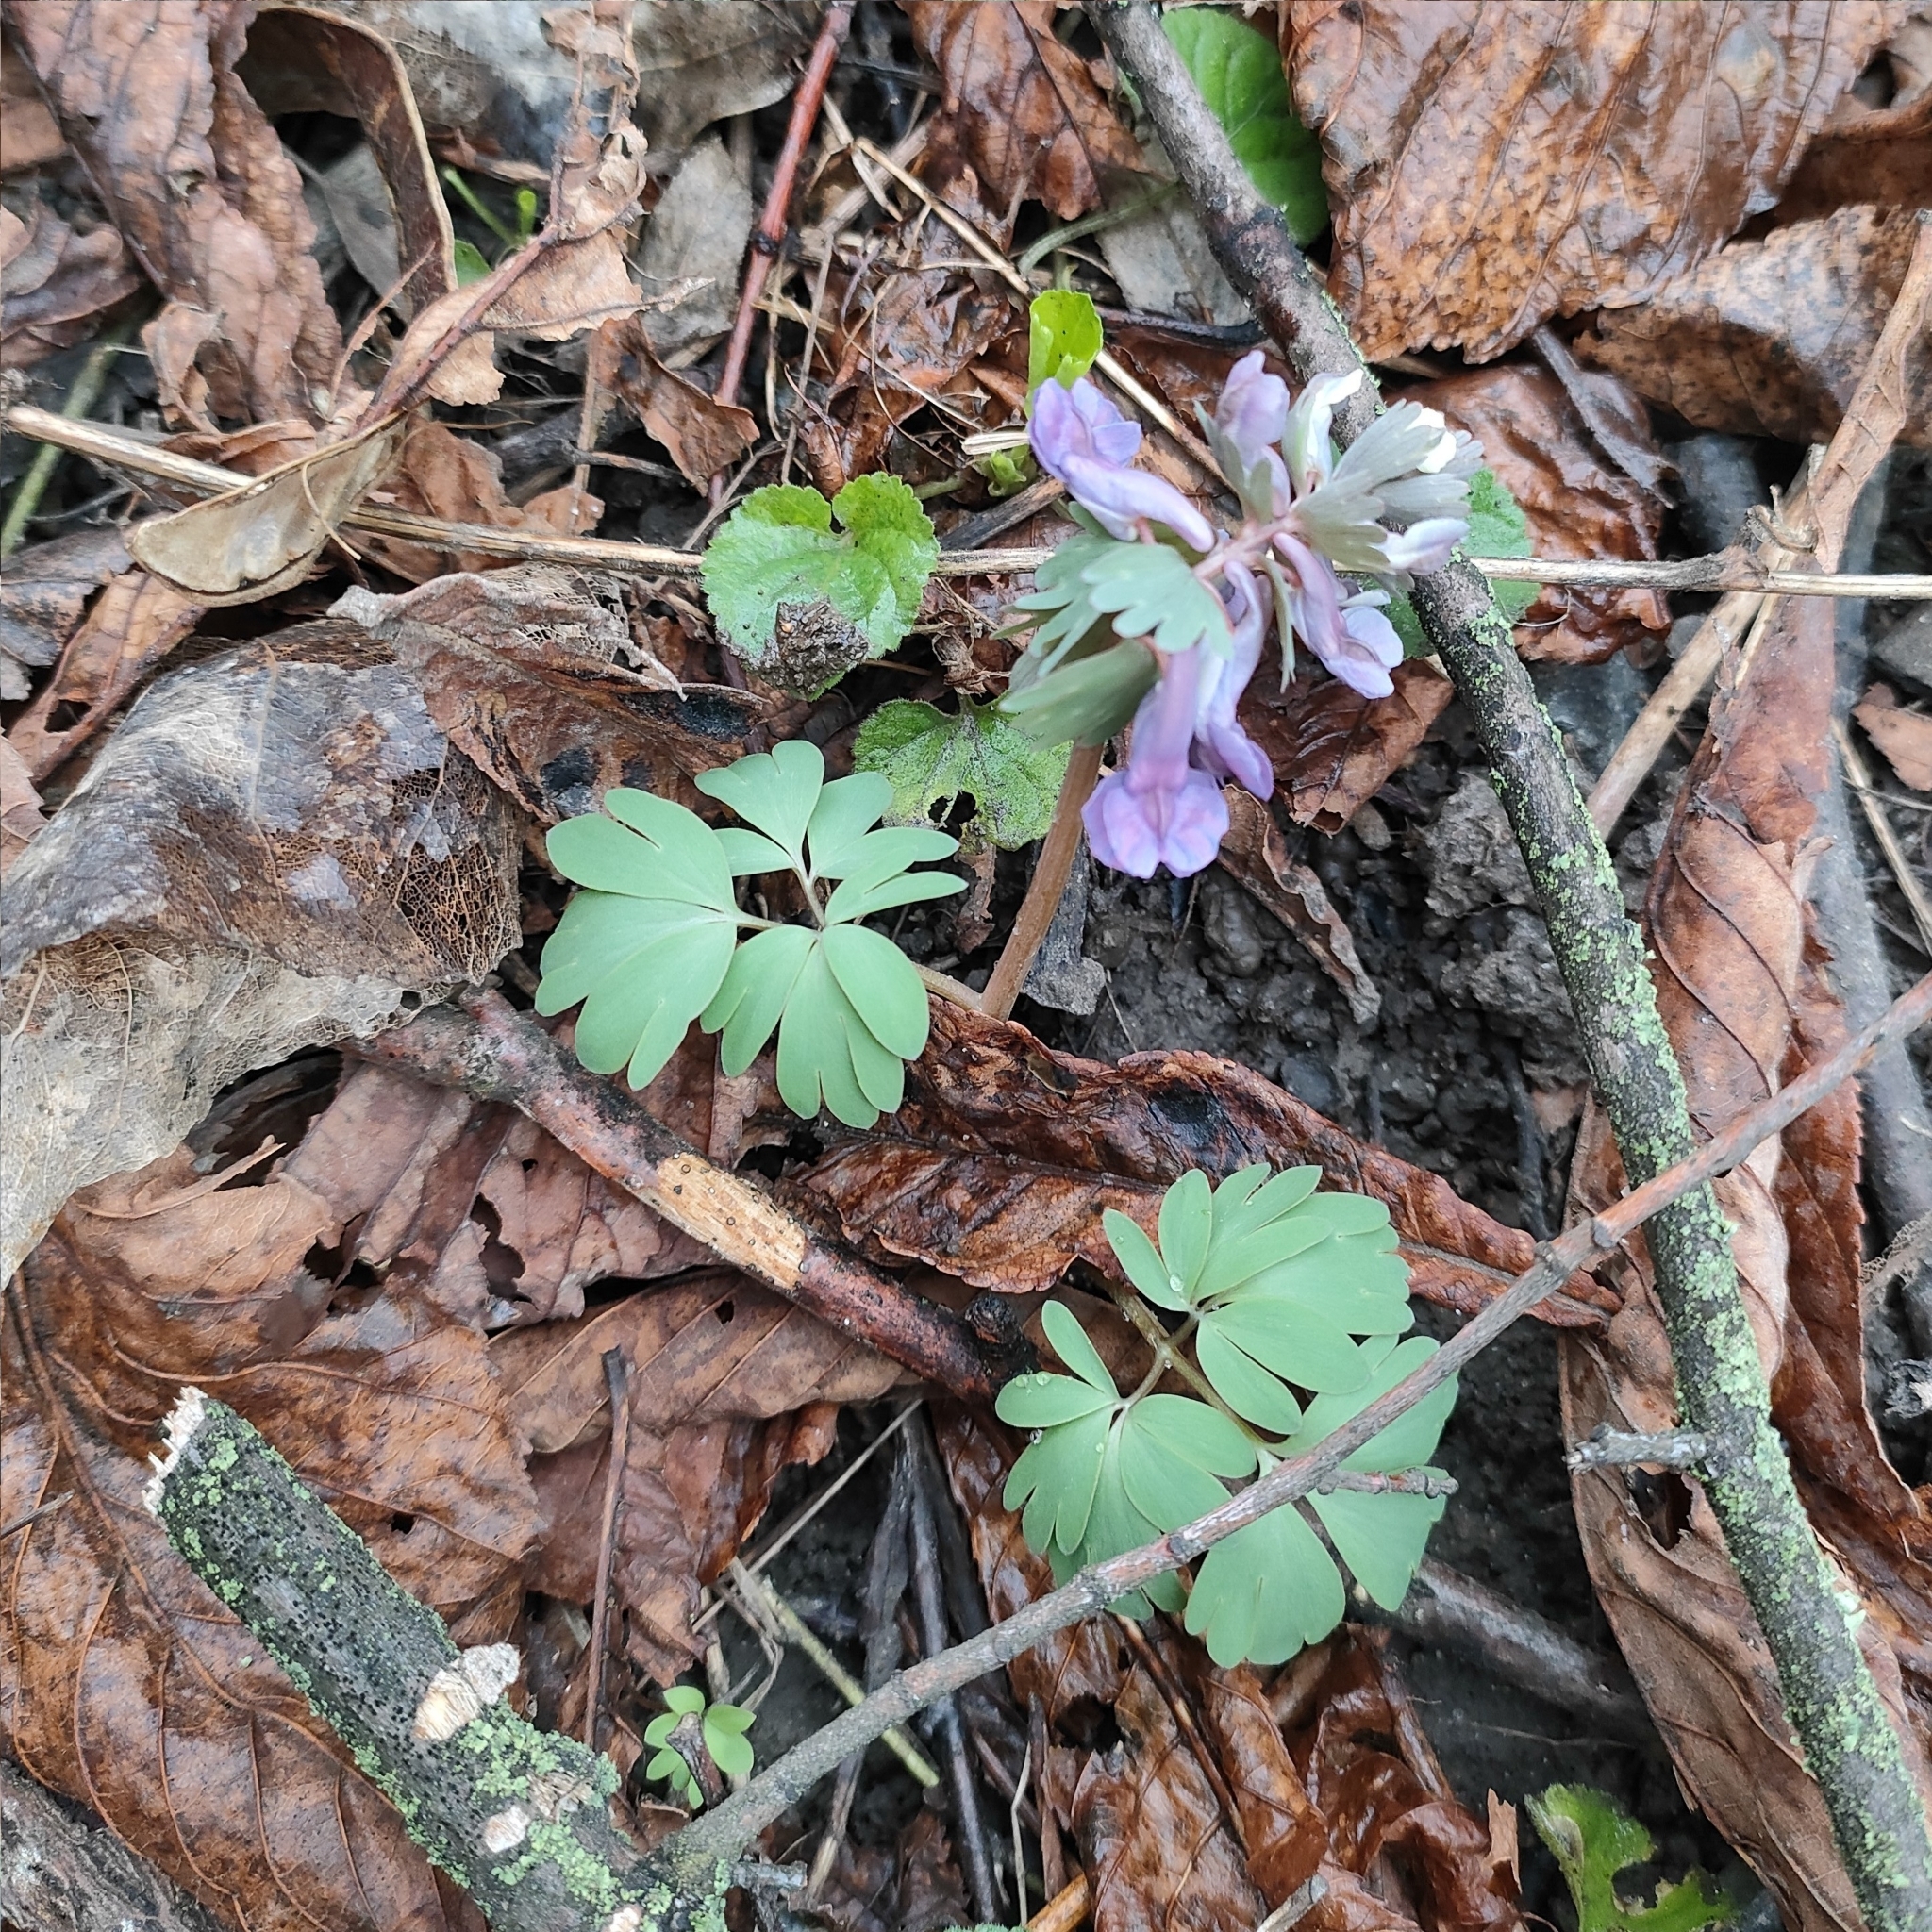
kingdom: Plantae
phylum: Tracheophyta
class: Magnoliopsida
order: Ranunculales
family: Papaveraceae
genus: Corydalis
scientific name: Corydalis solida
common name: Bird-in-a-bush
